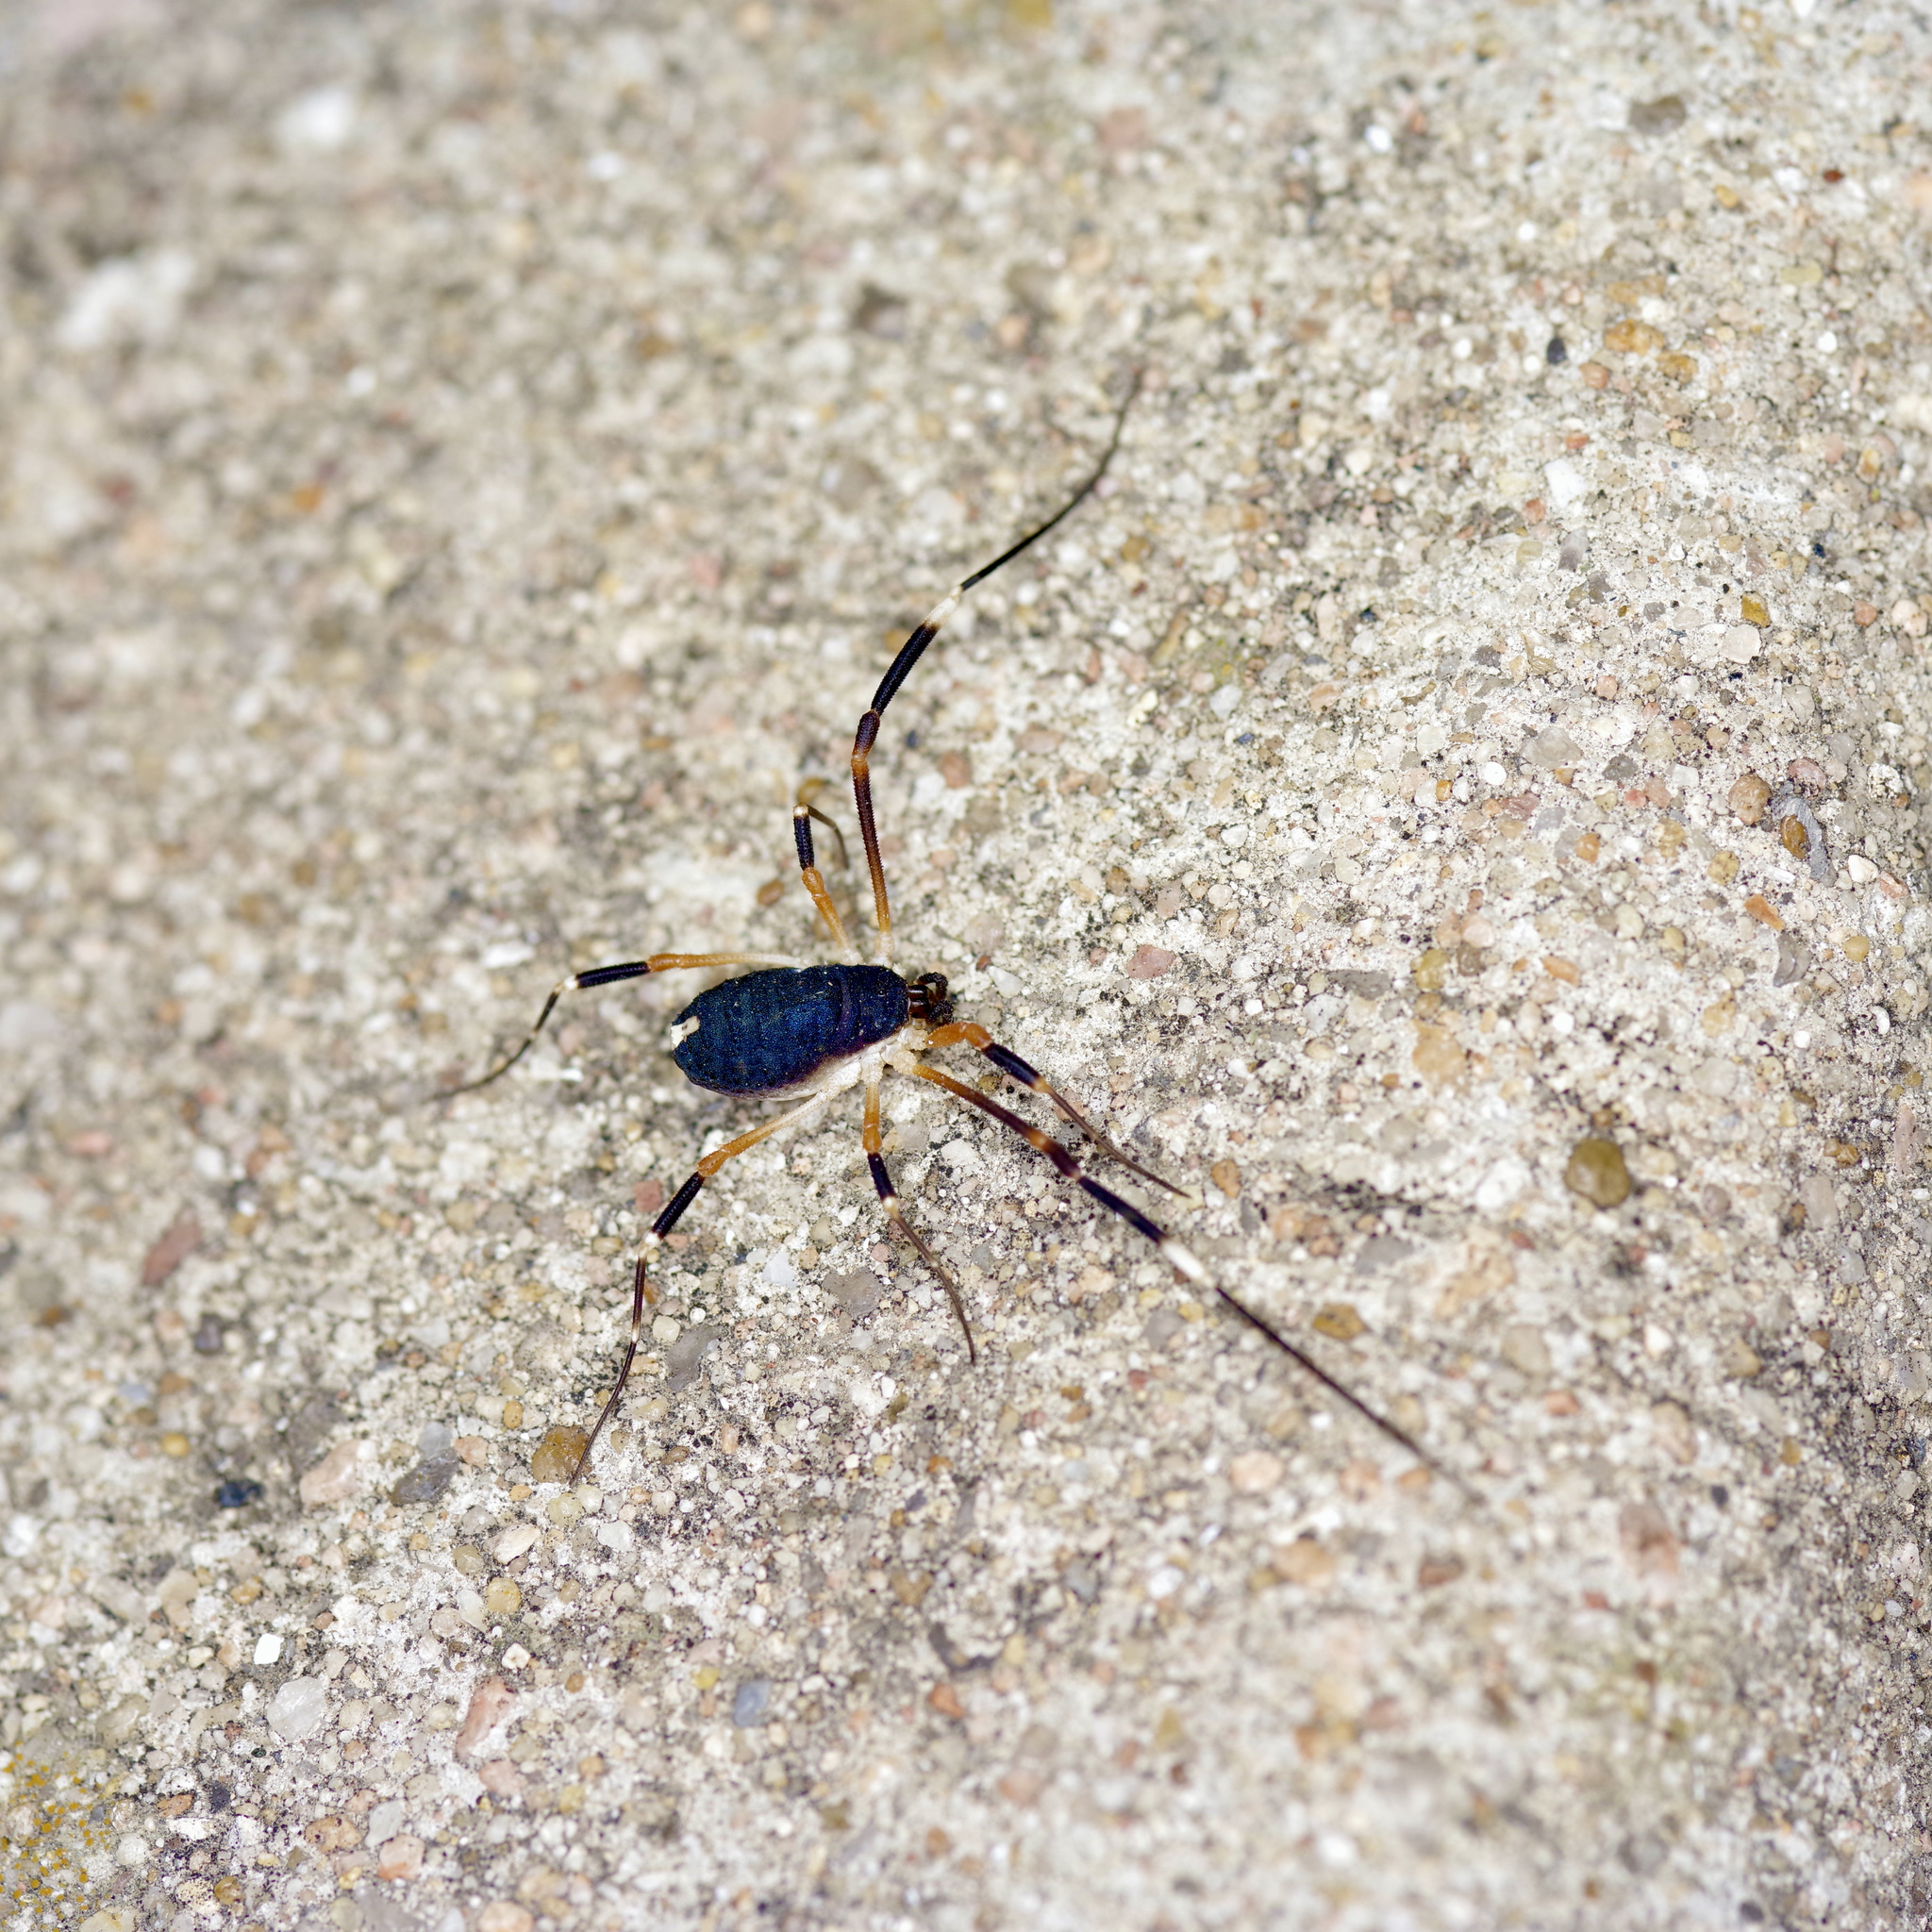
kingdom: Animalia
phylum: Arthropoda
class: Arachnida
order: Opiliones
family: Globipedidae
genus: Dalquestia
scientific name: Dalquestia formosa
